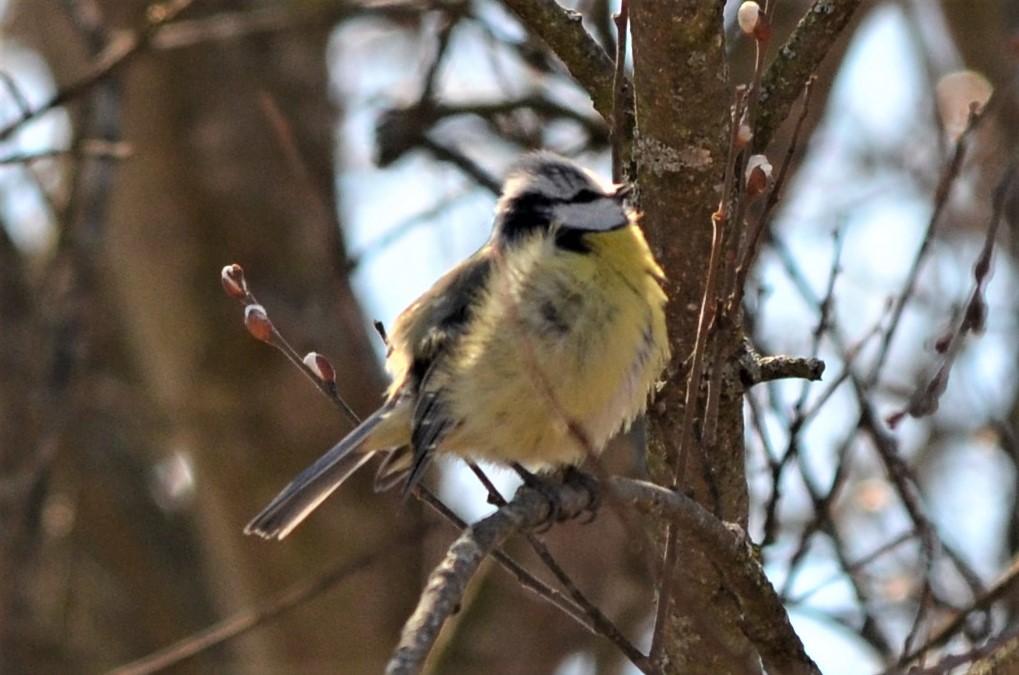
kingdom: Animalia
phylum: Chordata
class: Aves
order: Passeriformes
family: Paridae
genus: Cyanistes
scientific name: Cyanistes caeruleus
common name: Eurasian blue tit
